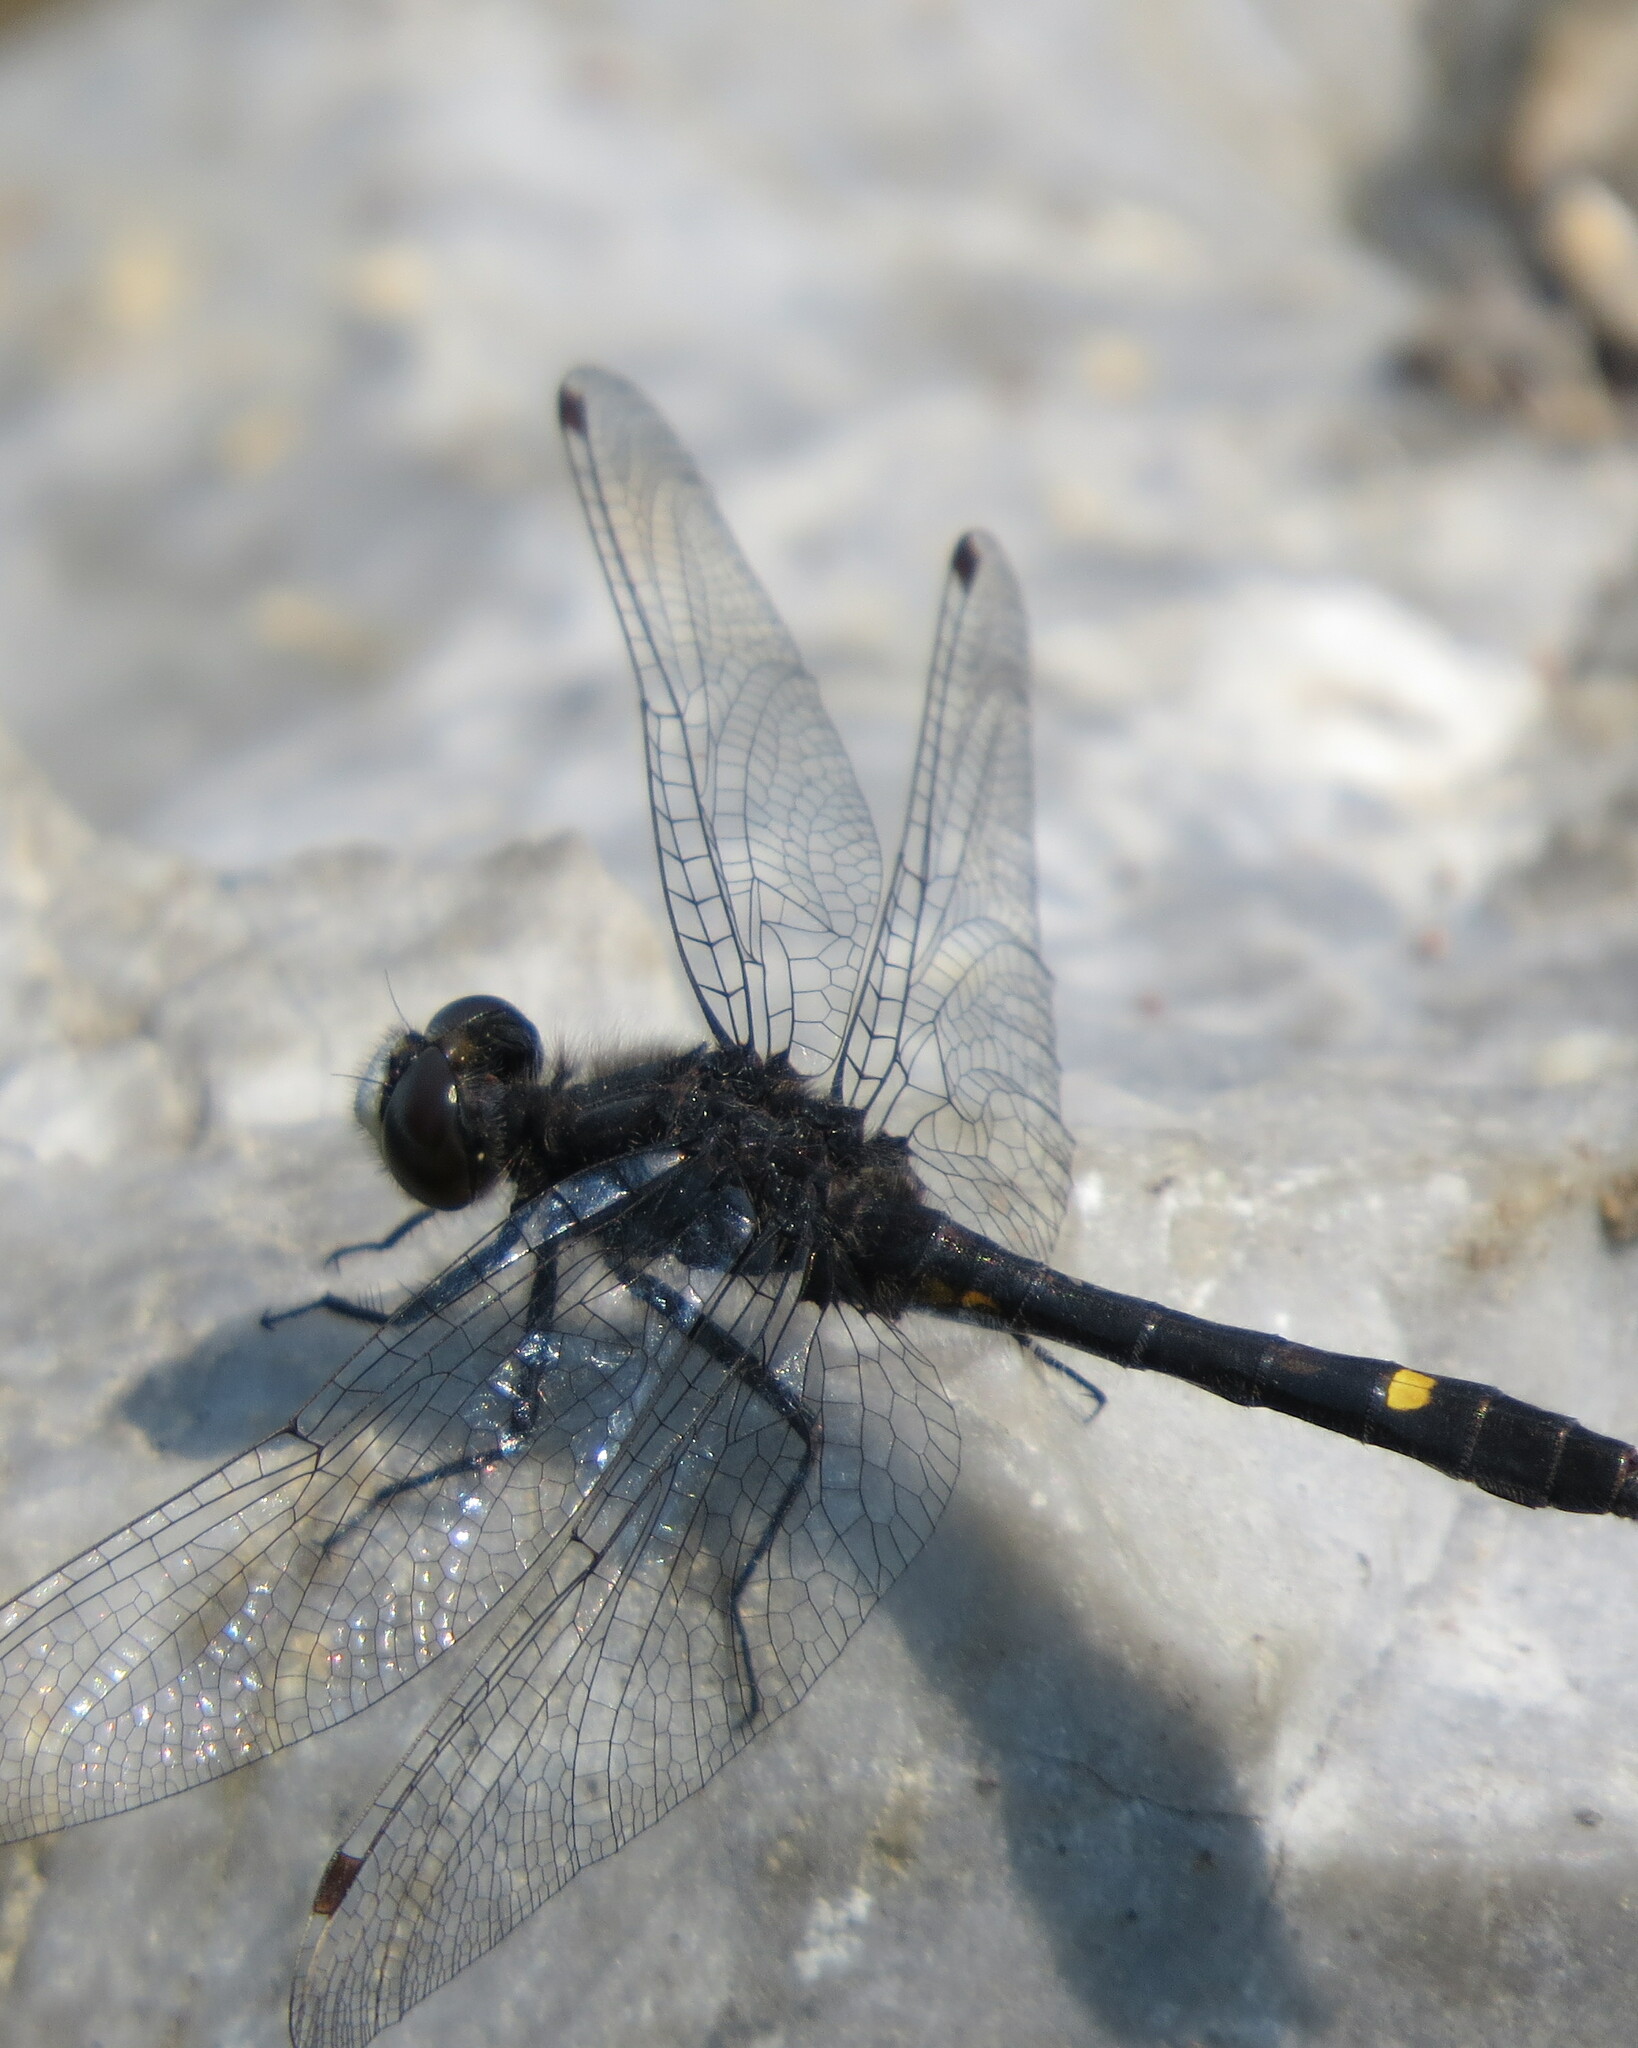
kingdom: Animalia
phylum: Arthropoda
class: Insecta
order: Odonata
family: Libellulidae
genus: Leucorrhinia
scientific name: Leucorrhinia intacta
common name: Dot-tailed whiteface
